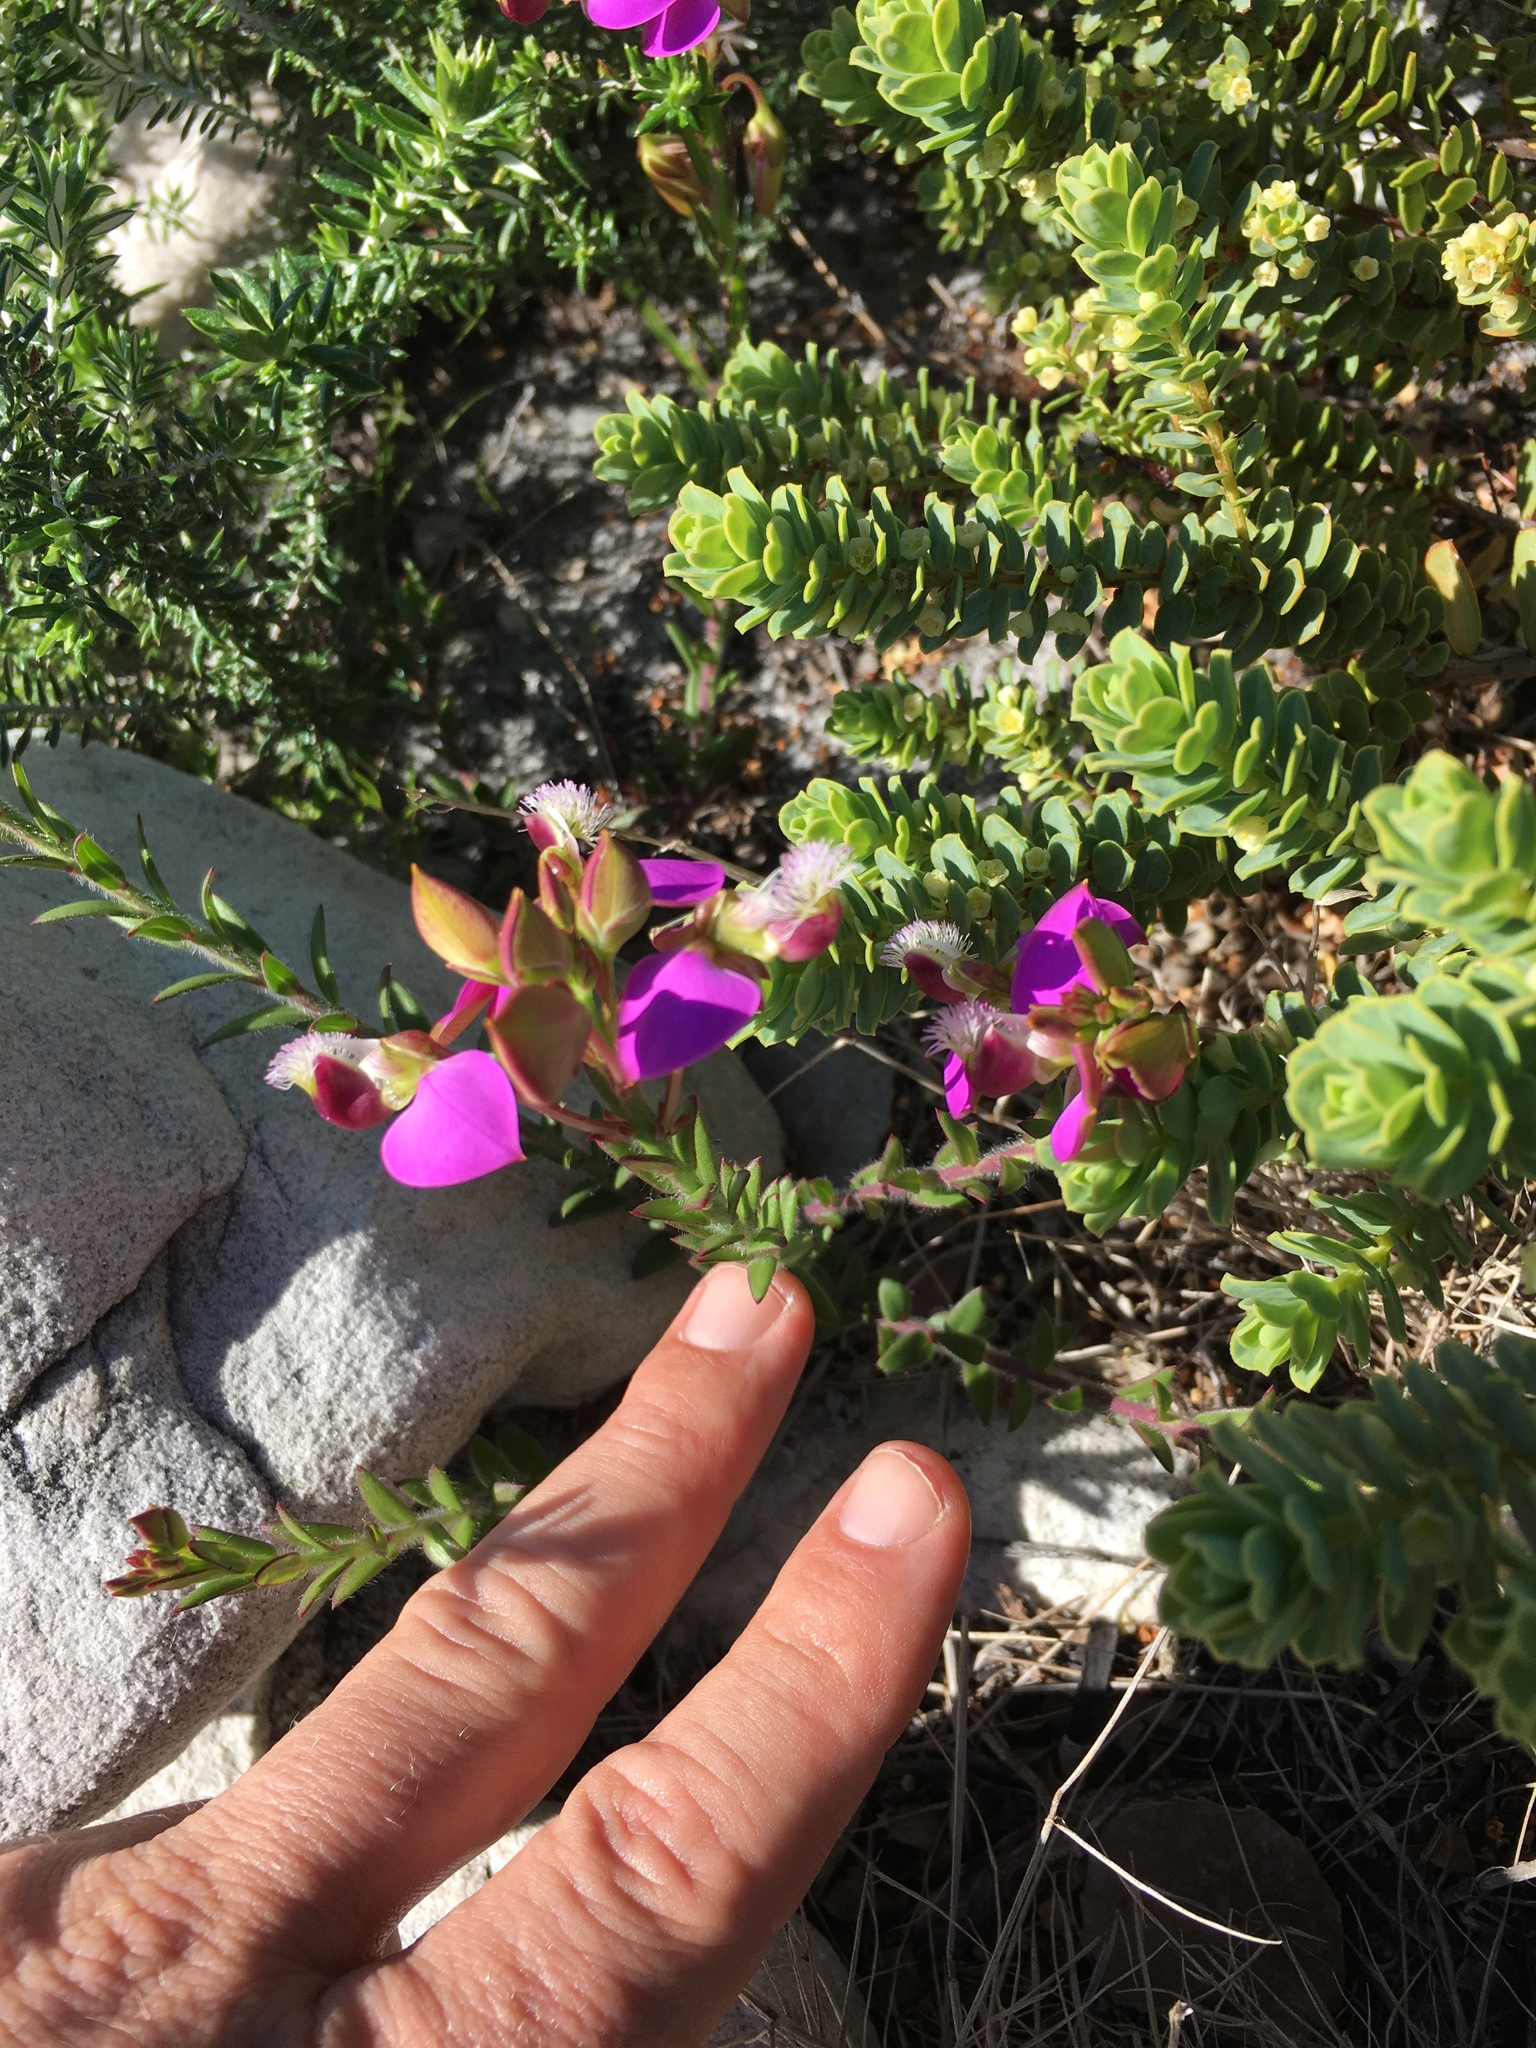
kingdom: Plantae
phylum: Tracheophyta
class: Magnoliopsida
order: Fabales
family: Polygalaceae
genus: Polygala
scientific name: Polygala bracteolata
